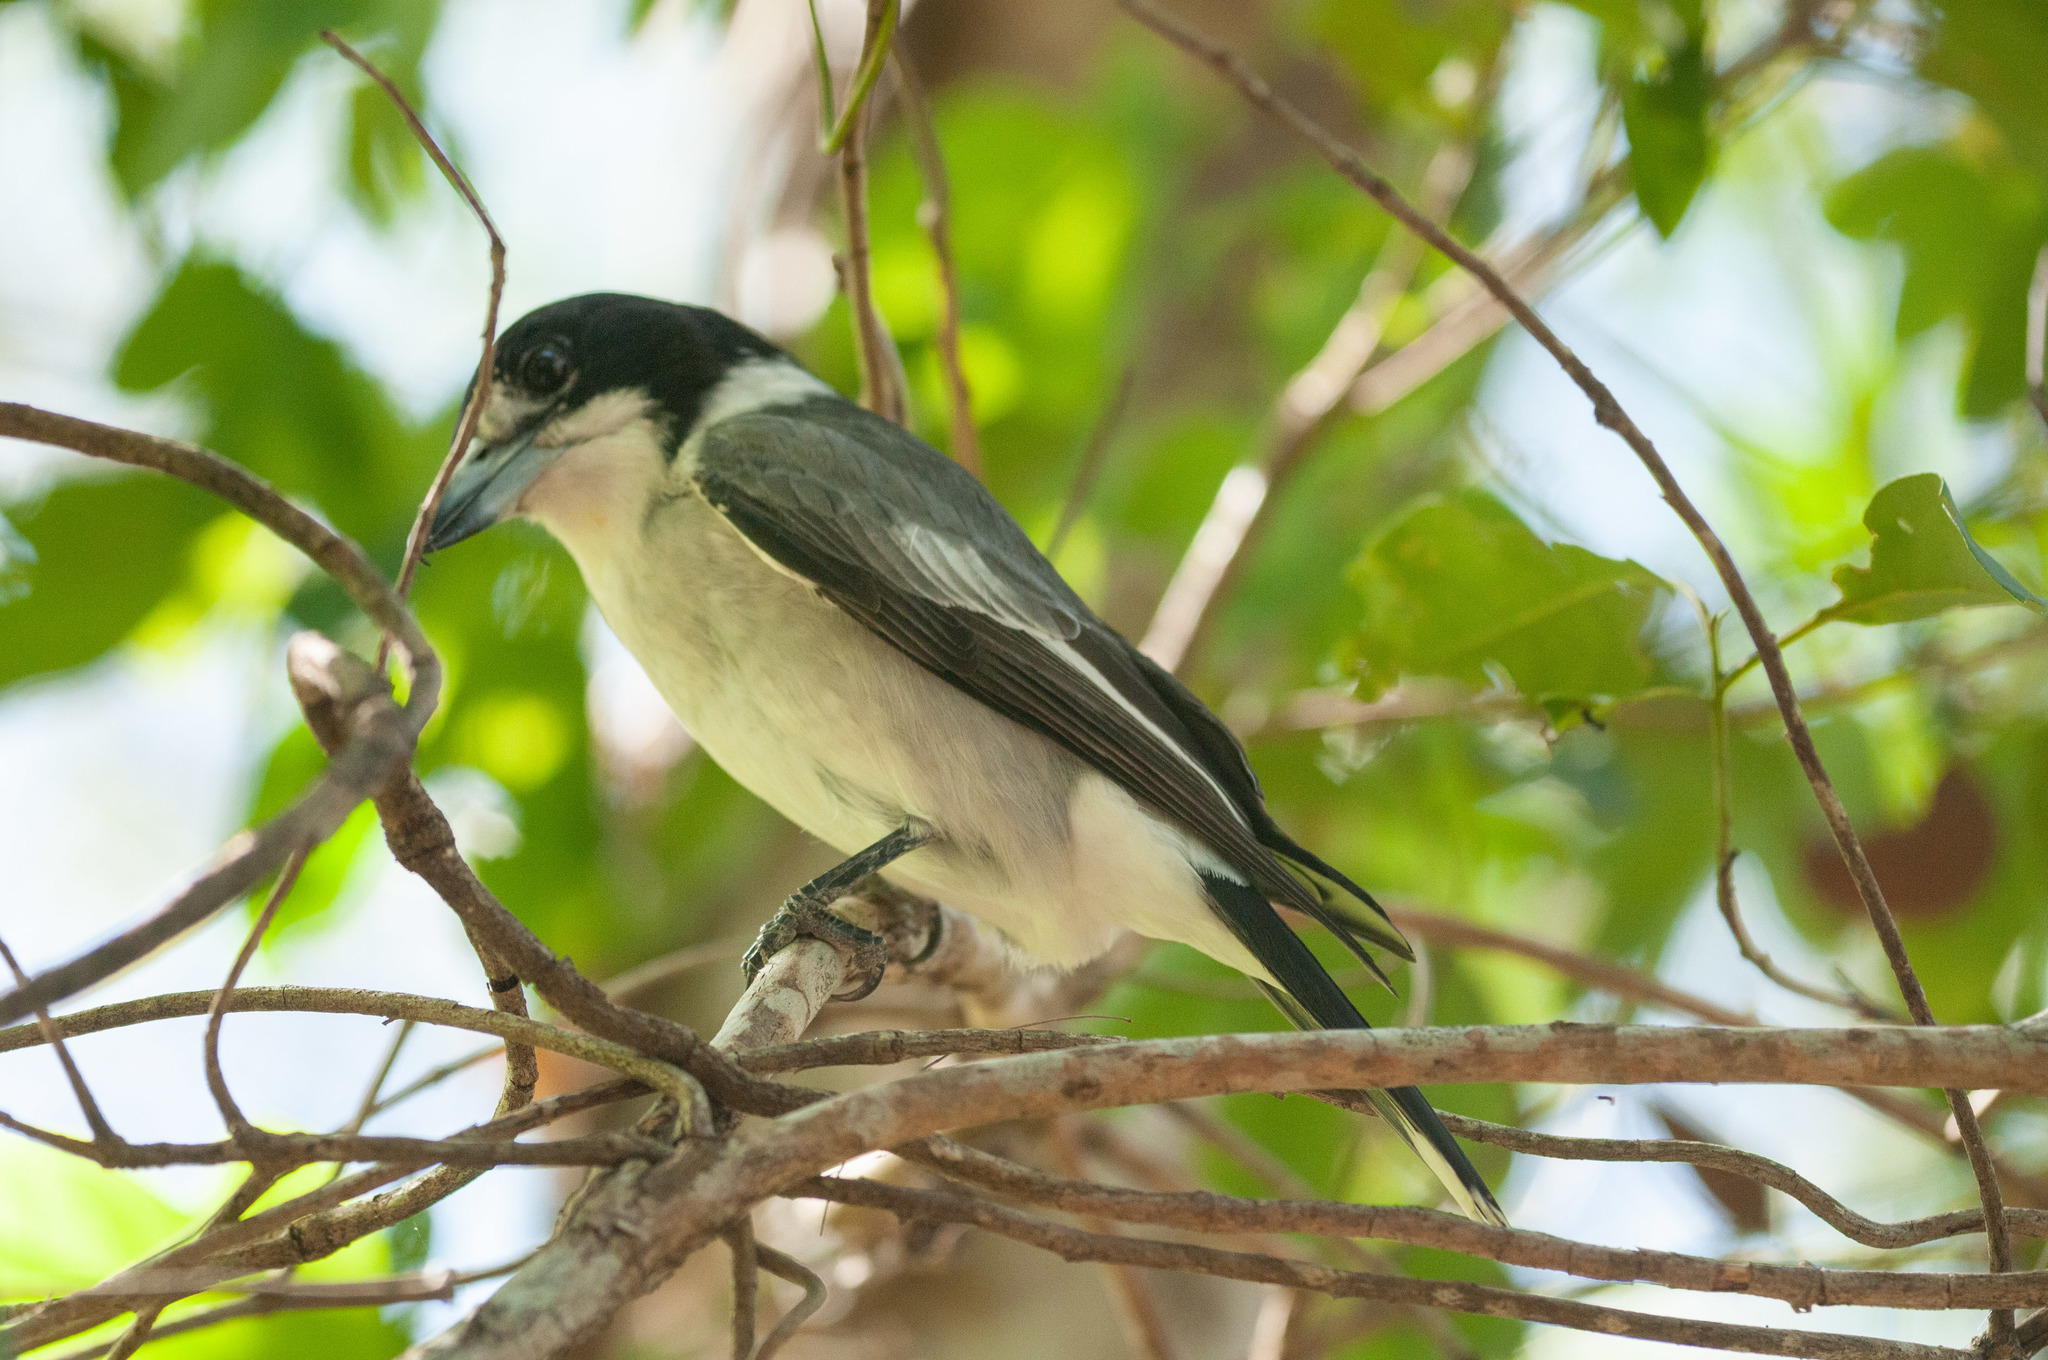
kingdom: Animalia
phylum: Chordata
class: Aves
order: Passeriformes
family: Cracticidae
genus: Cracticus
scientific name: Cracticus torquatus
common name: Grey butcherbird
